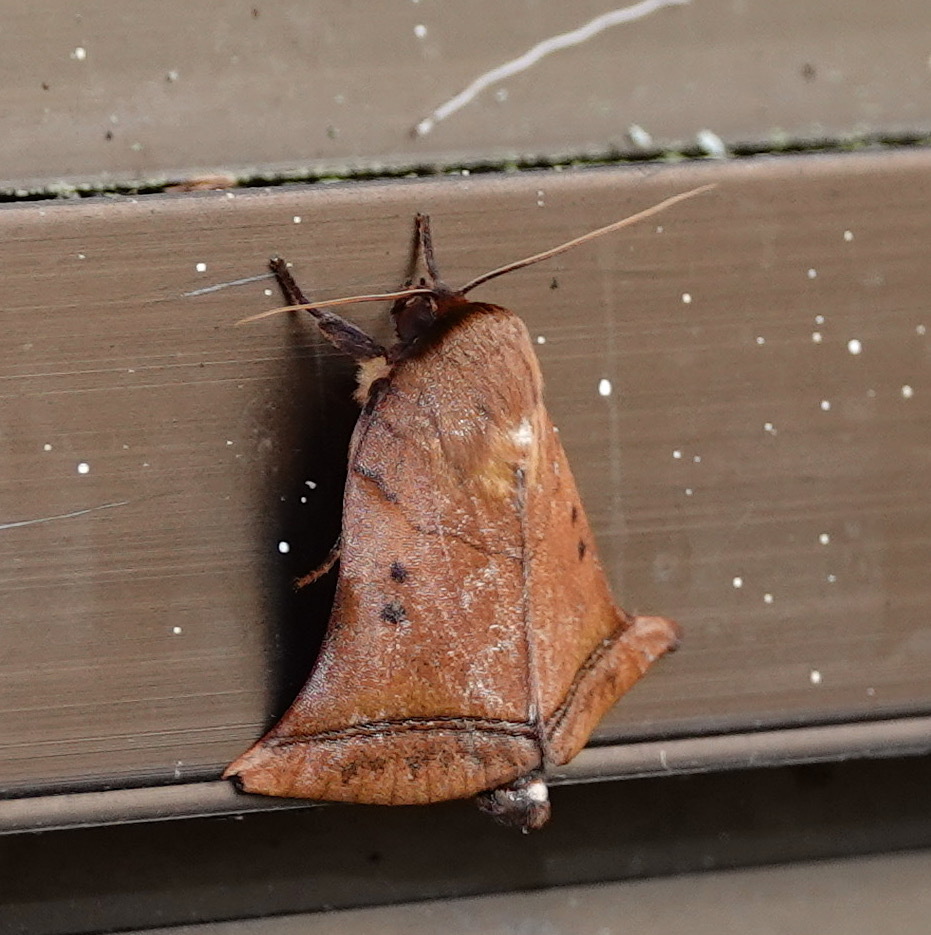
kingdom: Animalia
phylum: Arthropoda
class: Insecta
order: Lepidoptera
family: Nolidae
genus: Diehlea
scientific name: Diehlea ducalis
